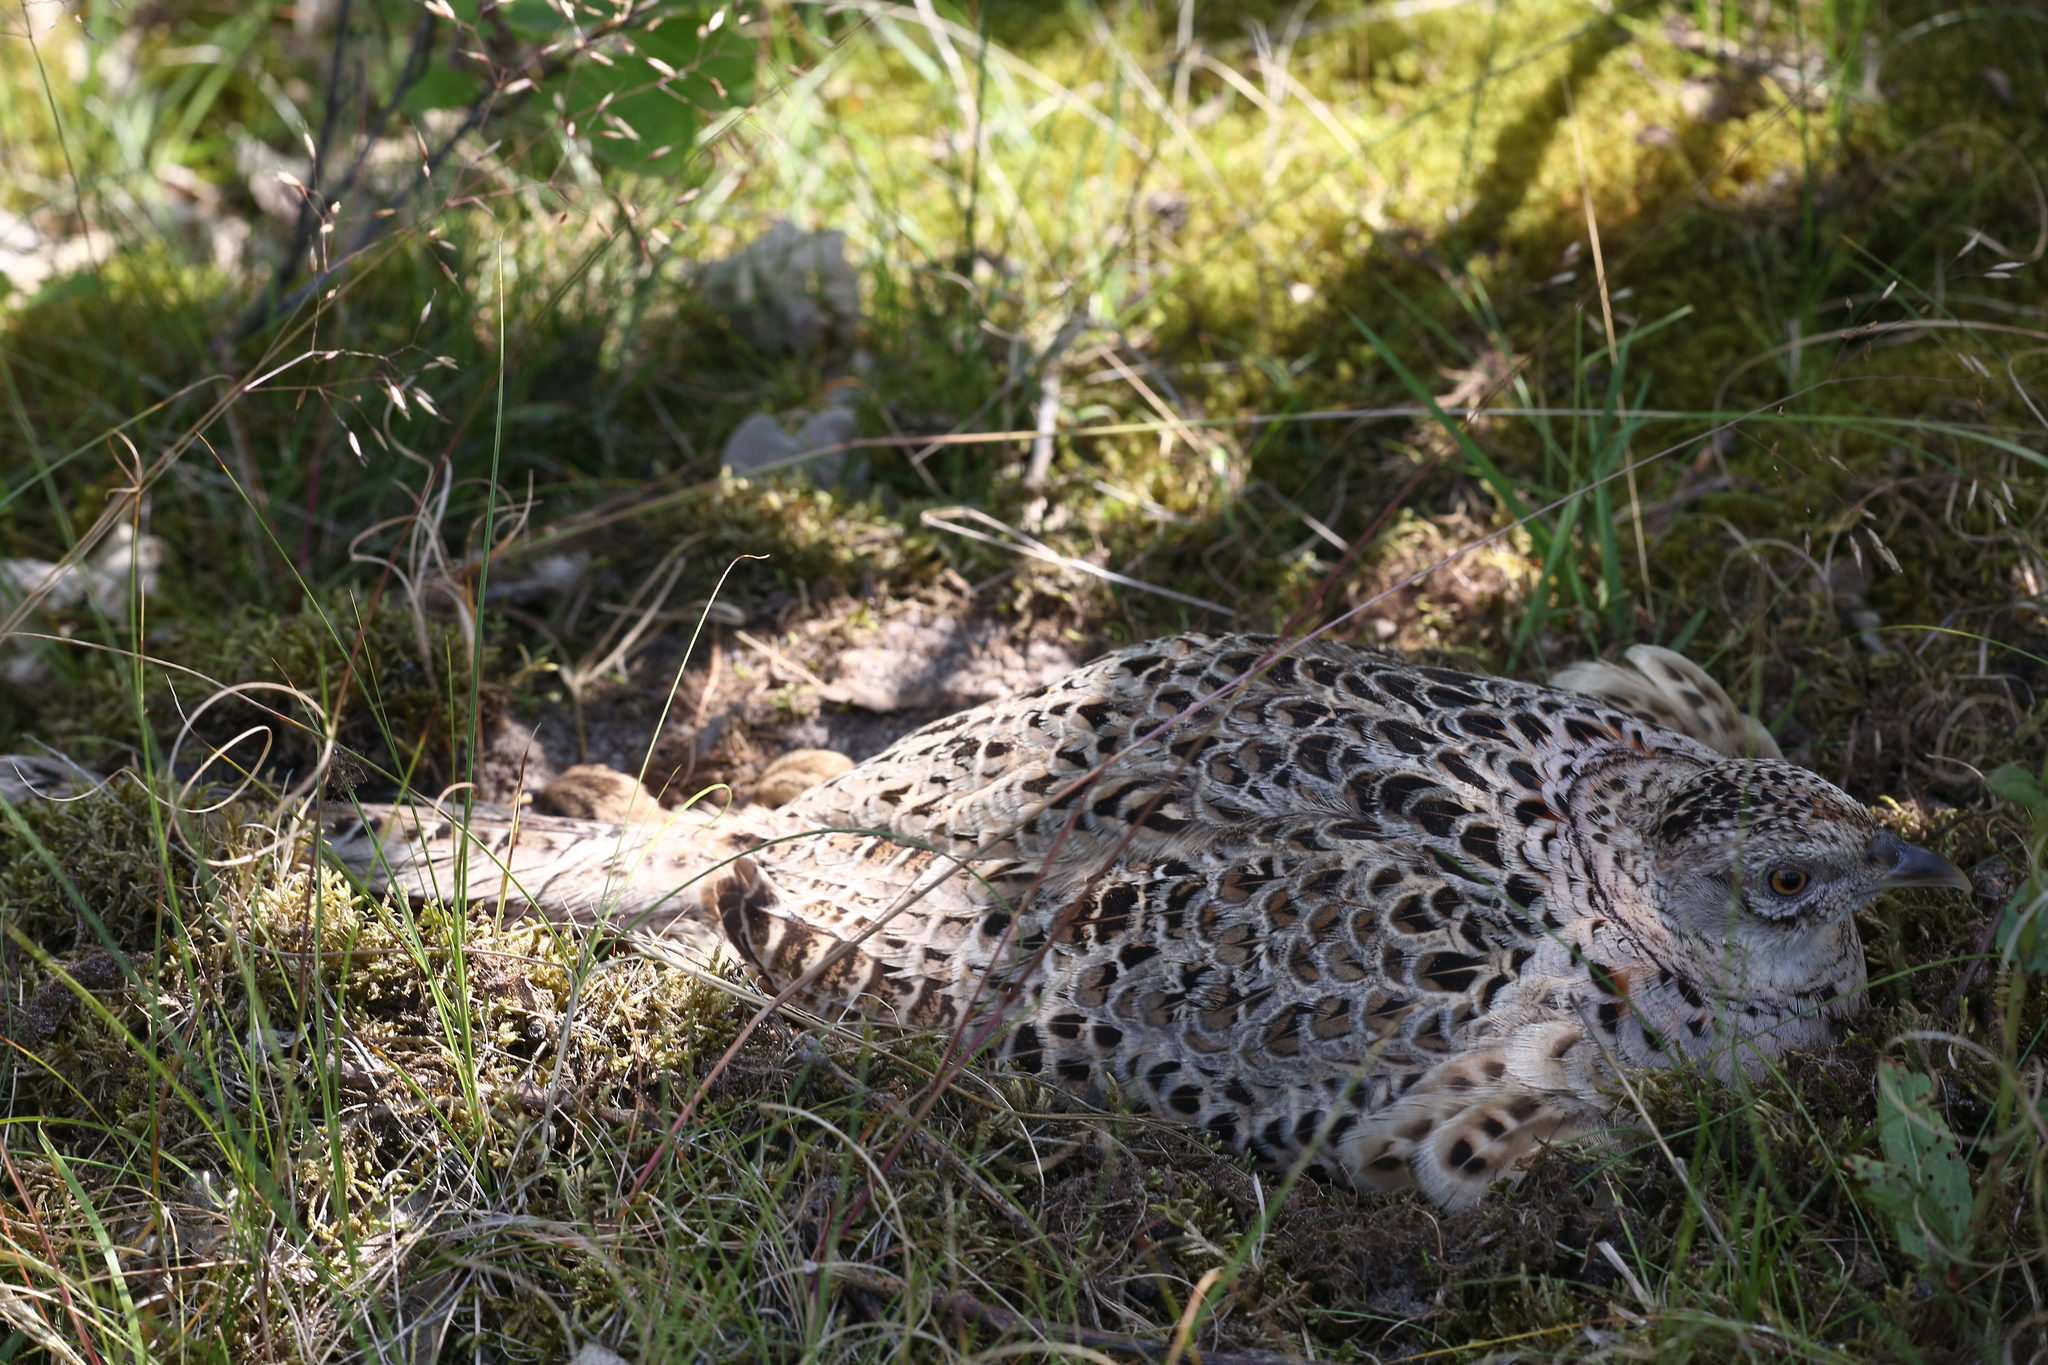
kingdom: Animalia
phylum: Chordata
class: Aves
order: Galliformes
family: Phasianidae
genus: Phasianus
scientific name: Phasianus colchicus
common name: Common pheasant
